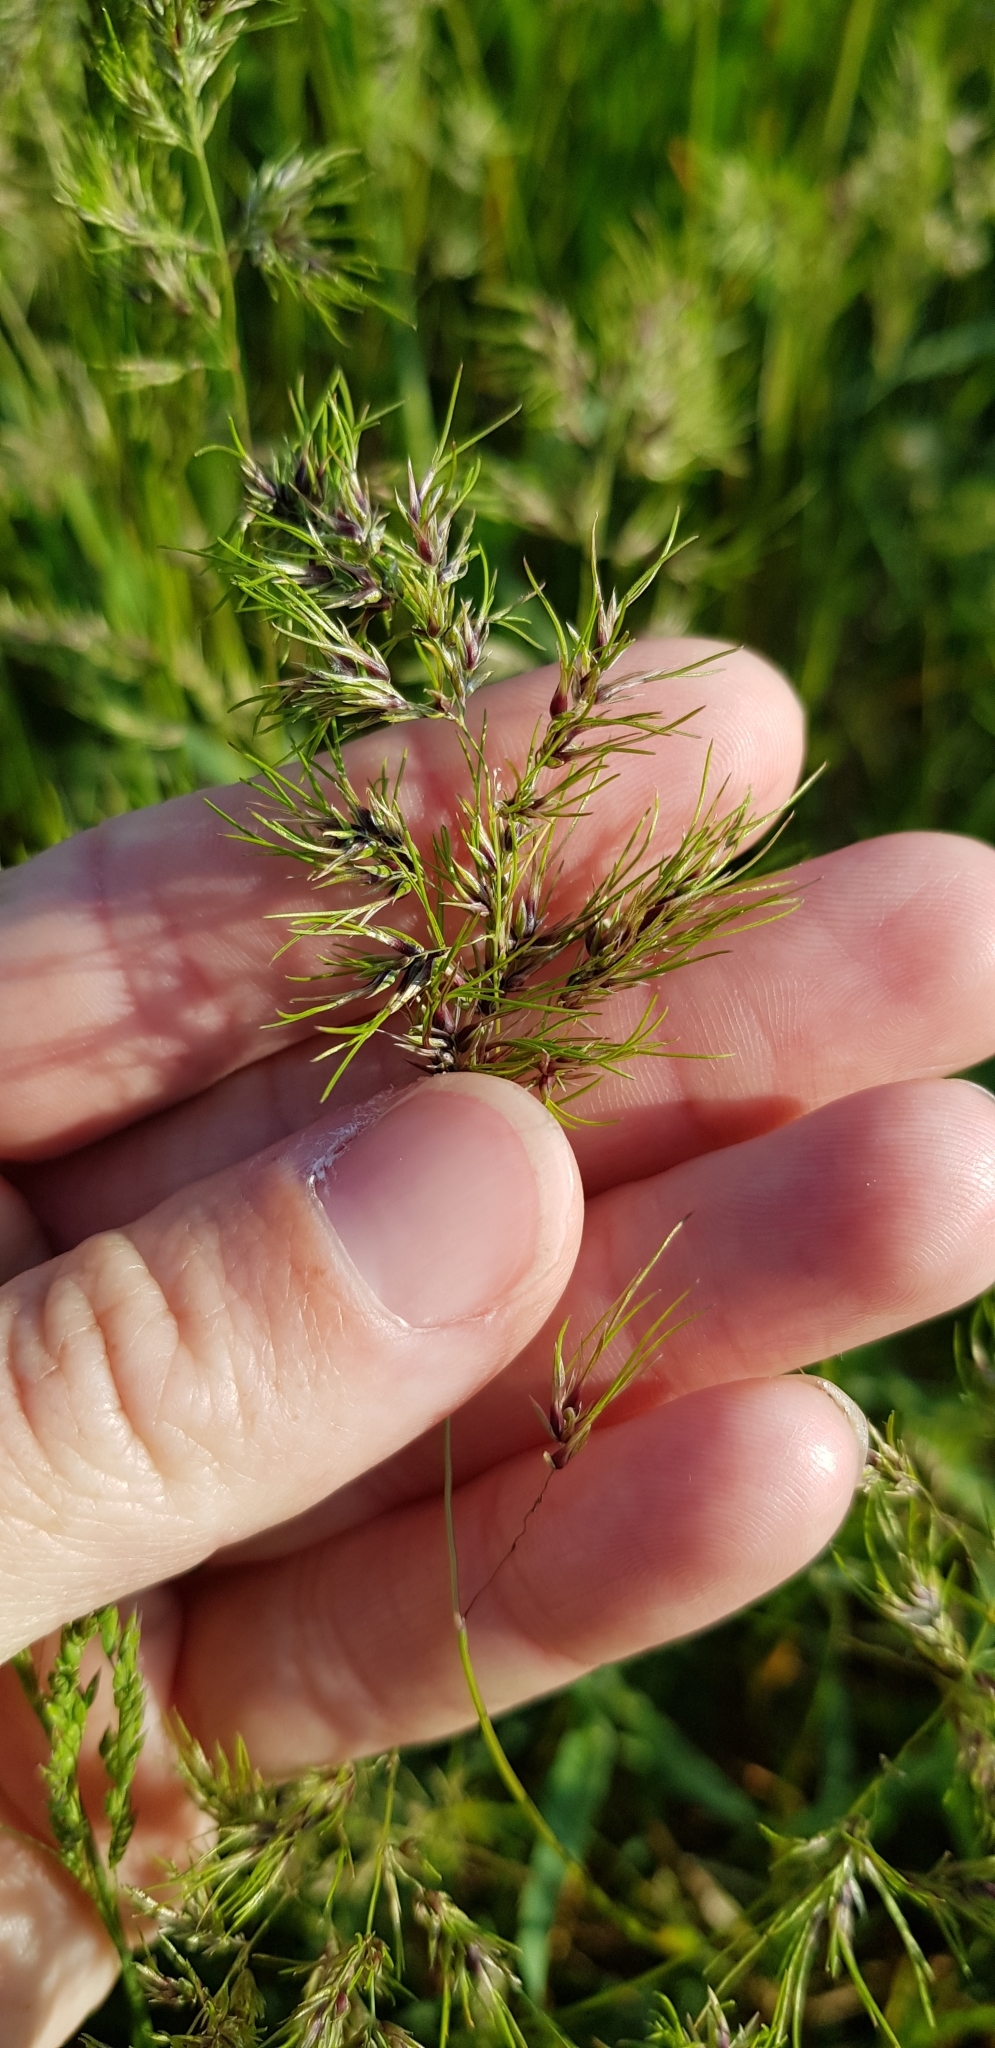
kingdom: Plantae
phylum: Tracheophyta
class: Liliopsida
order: Poales
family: Poaceae
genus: Poa
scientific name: Poa bulbosa
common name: Bulbous bluegrass
